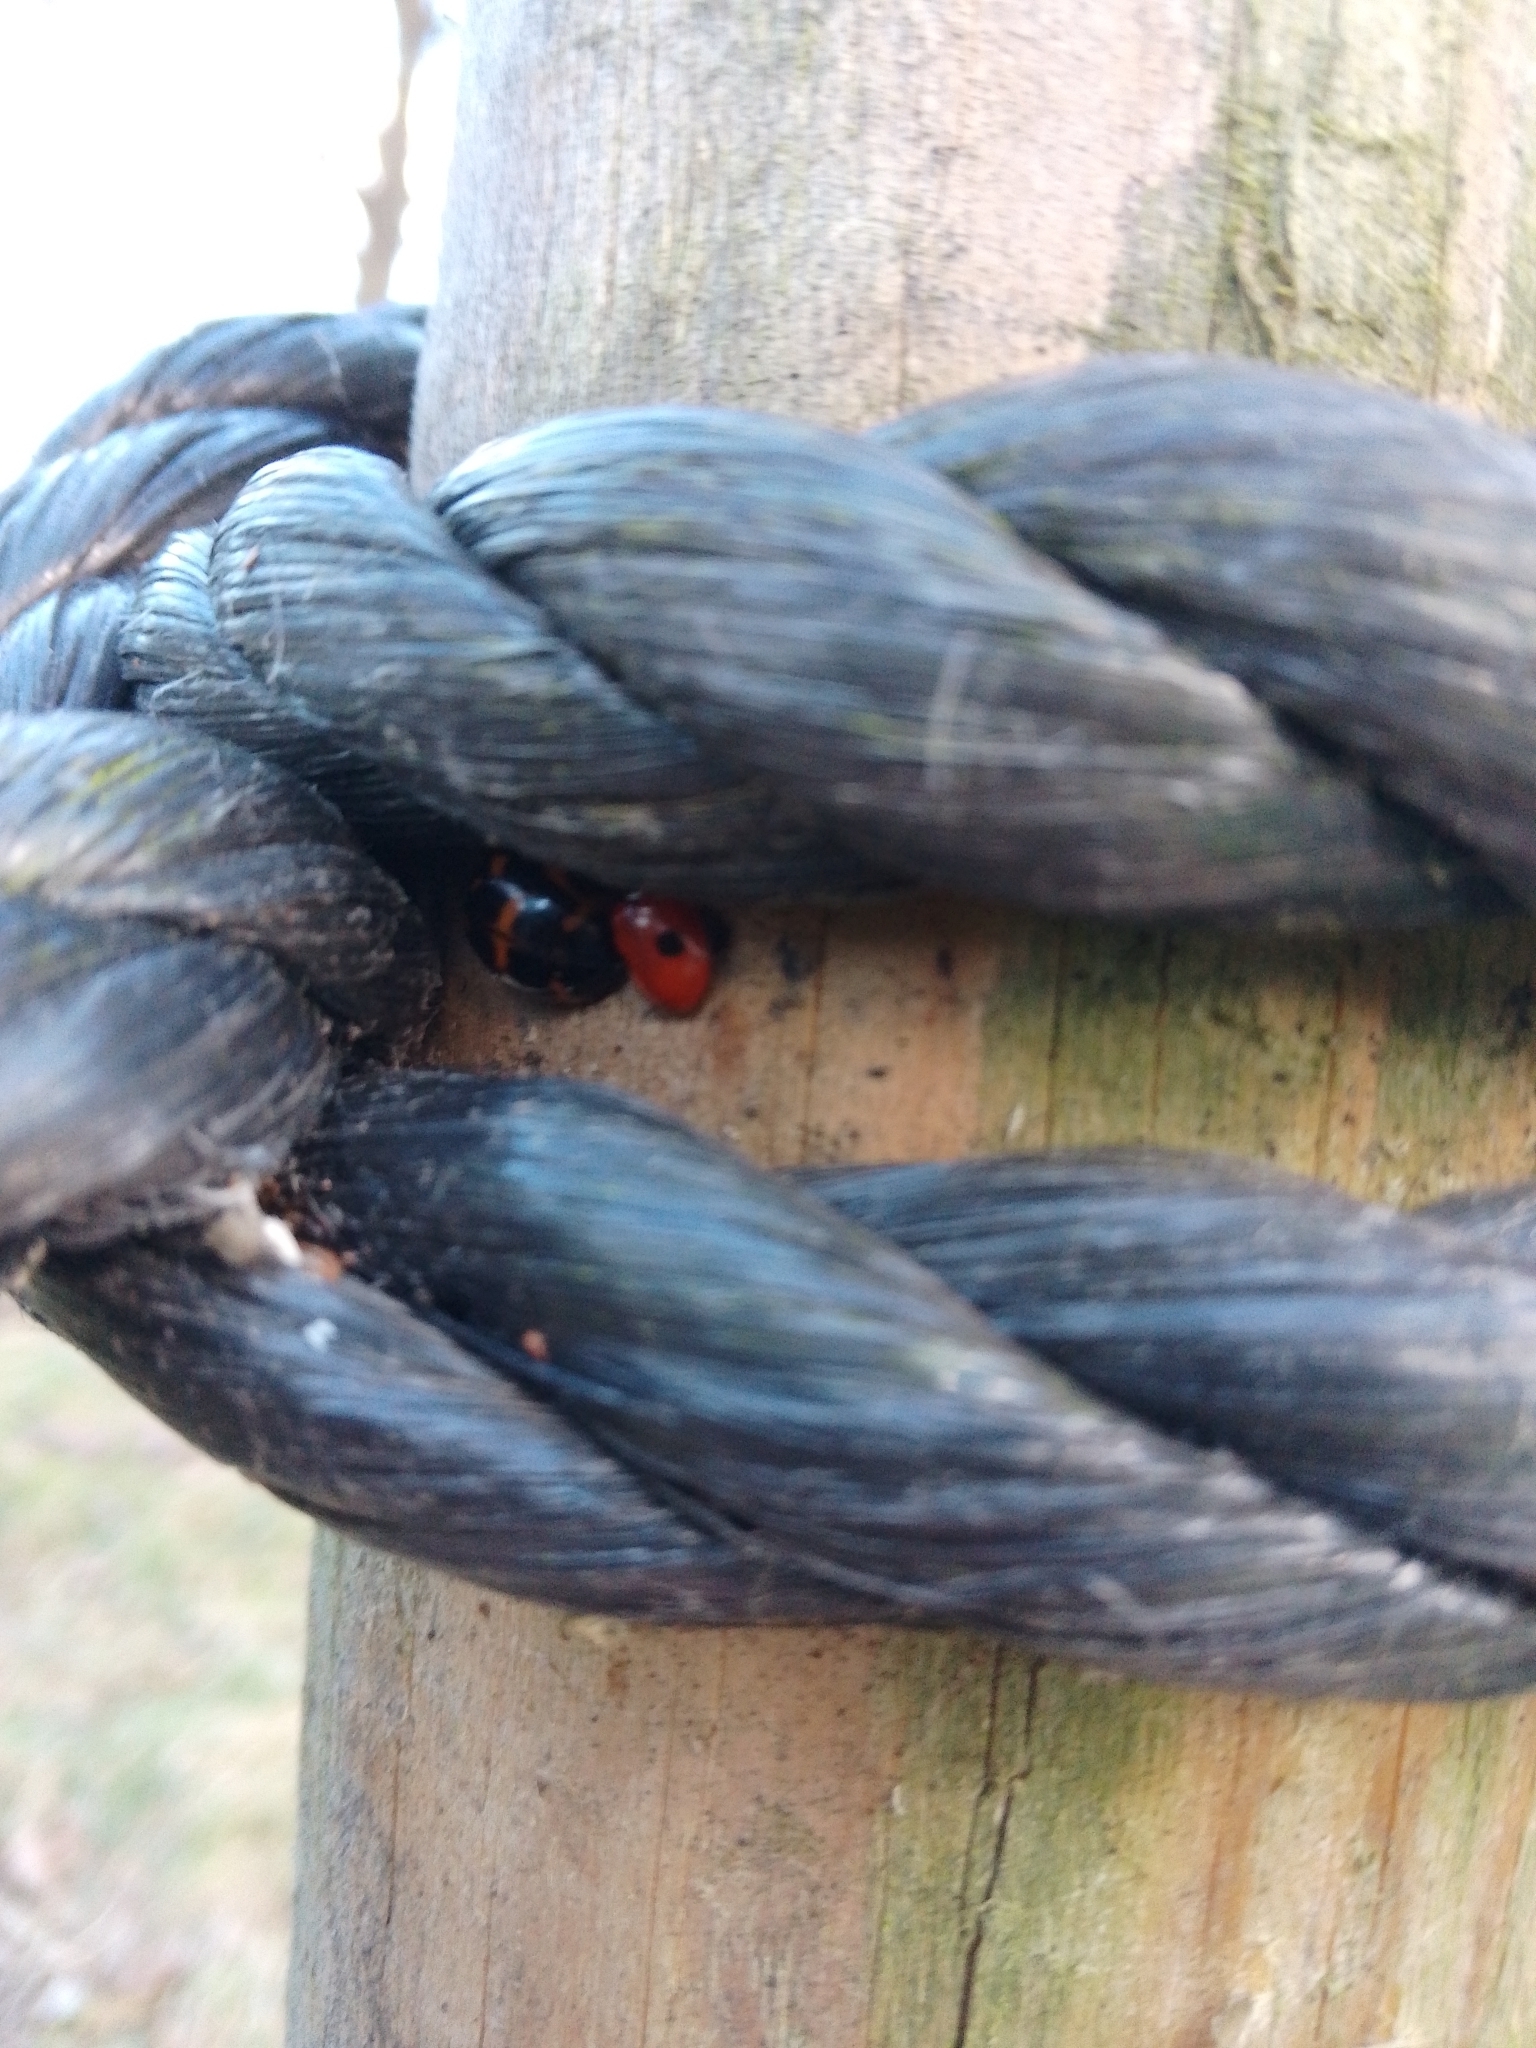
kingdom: Animalia
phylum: Arthropoda
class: Insecta
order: Coleoptera
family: Coccinellidae
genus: Adalia
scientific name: Adalia bipunctata
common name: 2-spot ladybird
